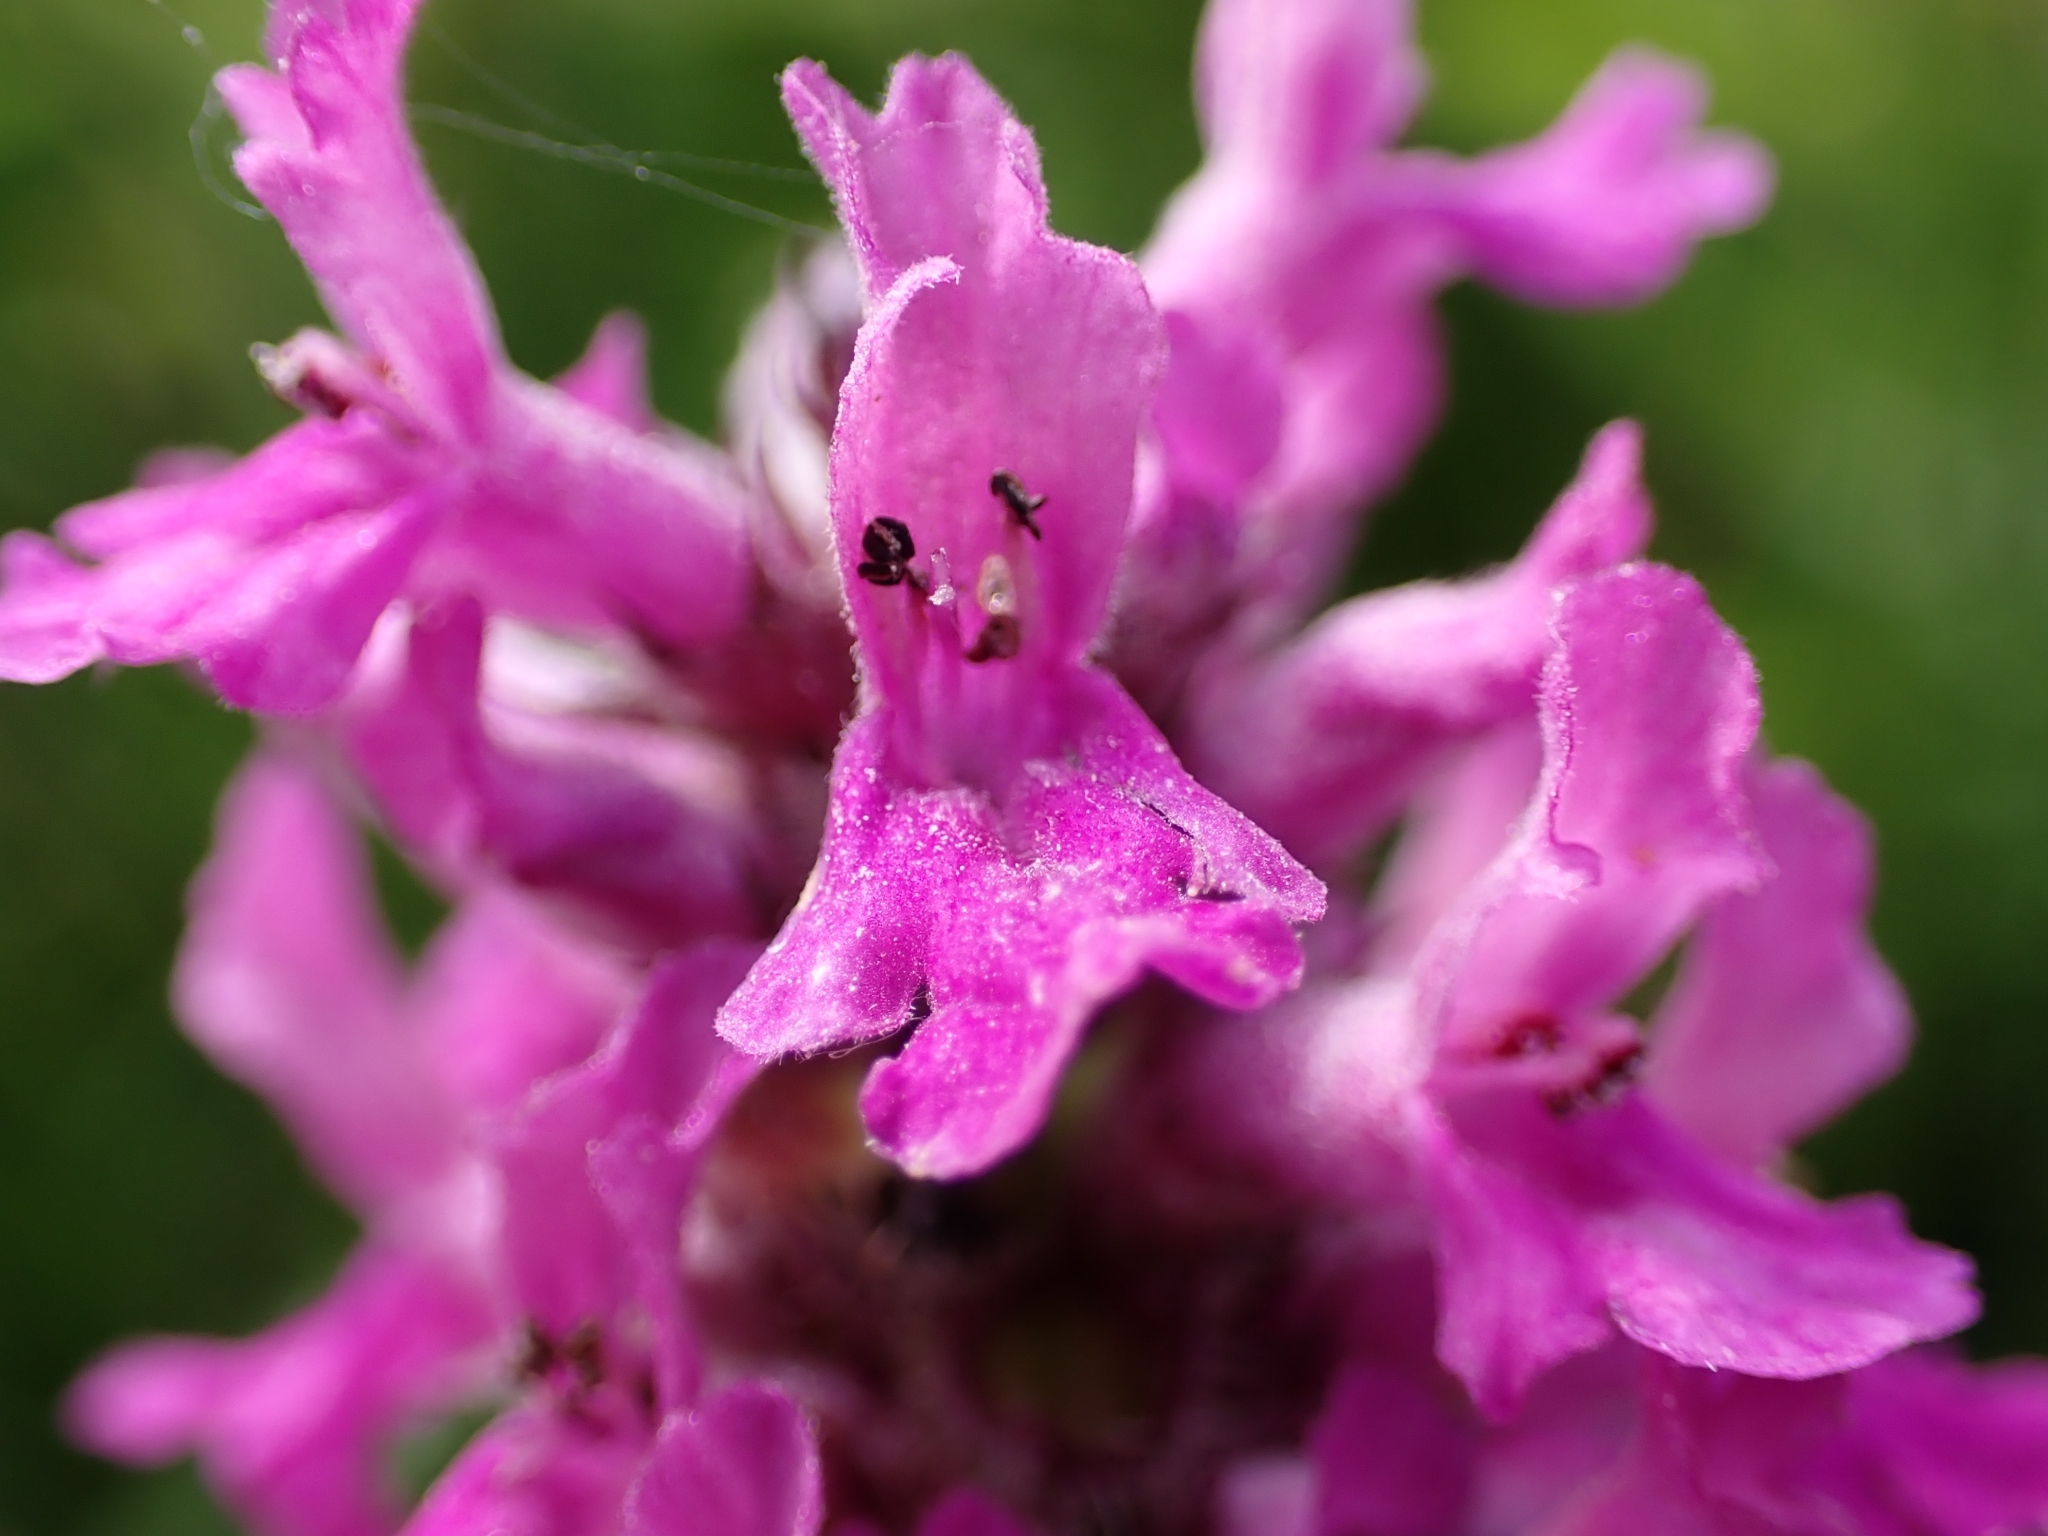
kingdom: Plantae
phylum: Tracheophyta
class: Magnoliopsida
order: Lamiales
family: Lamiaceae
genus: Betonica
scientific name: Betonica officinalis
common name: Bishop's-wort
